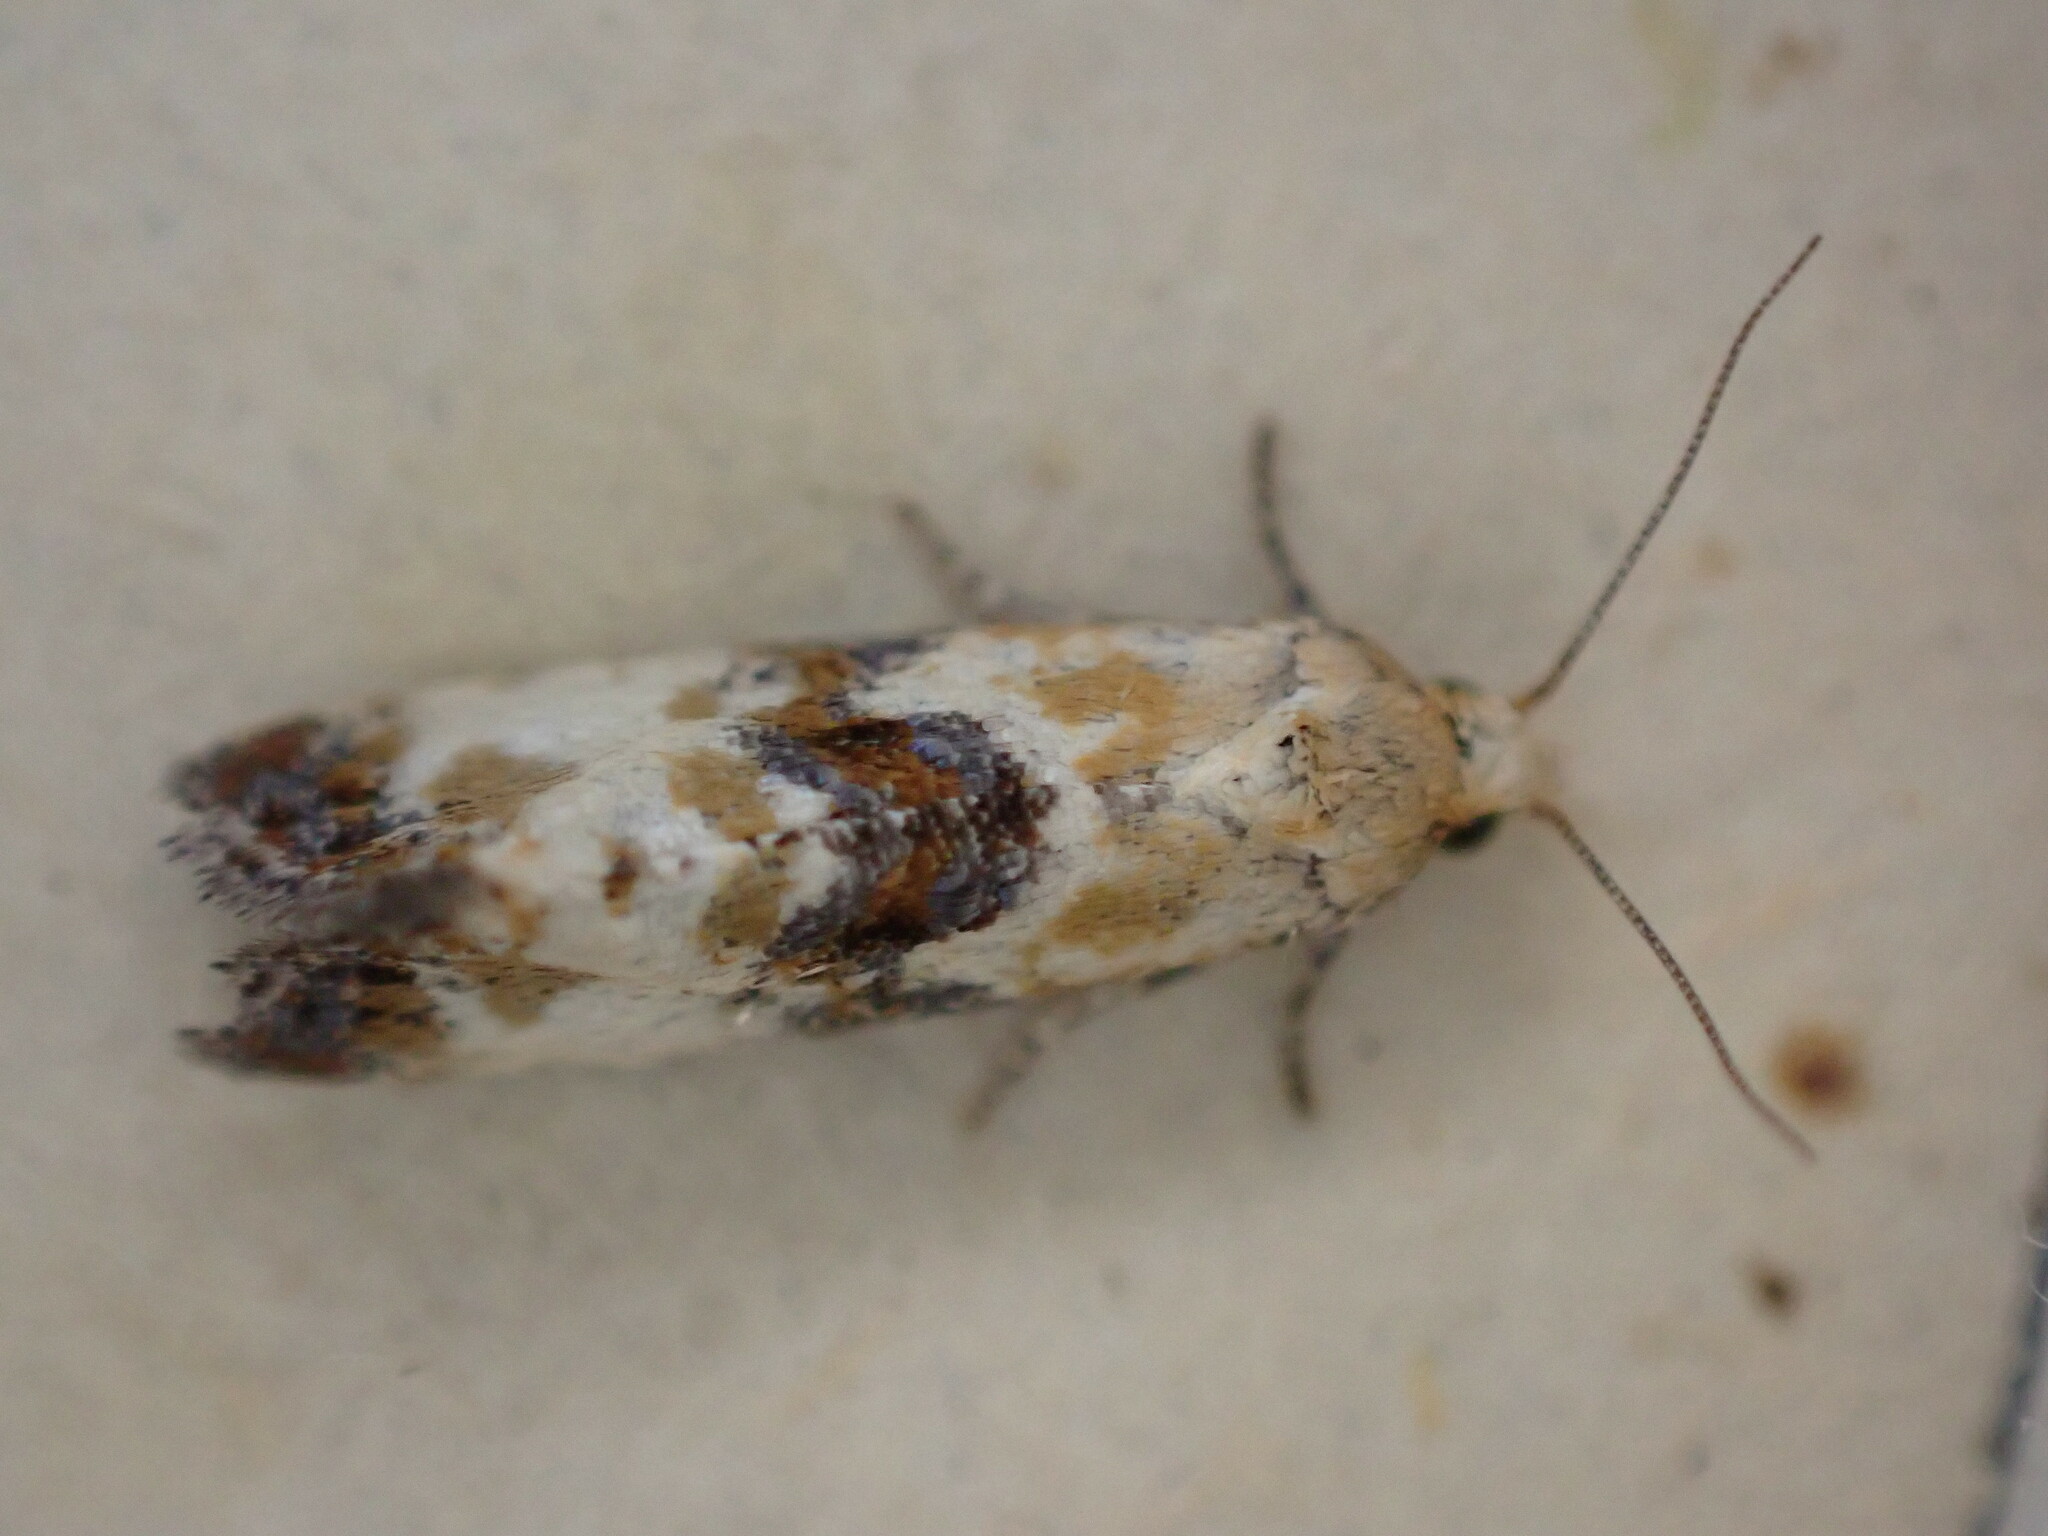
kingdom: Animalia
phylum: Arthropoda
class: Insecta
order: Lepidoptera
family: Tortricidae
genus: Eupoecilia
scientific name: Eupoecilia angustana
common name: Marbled conch
